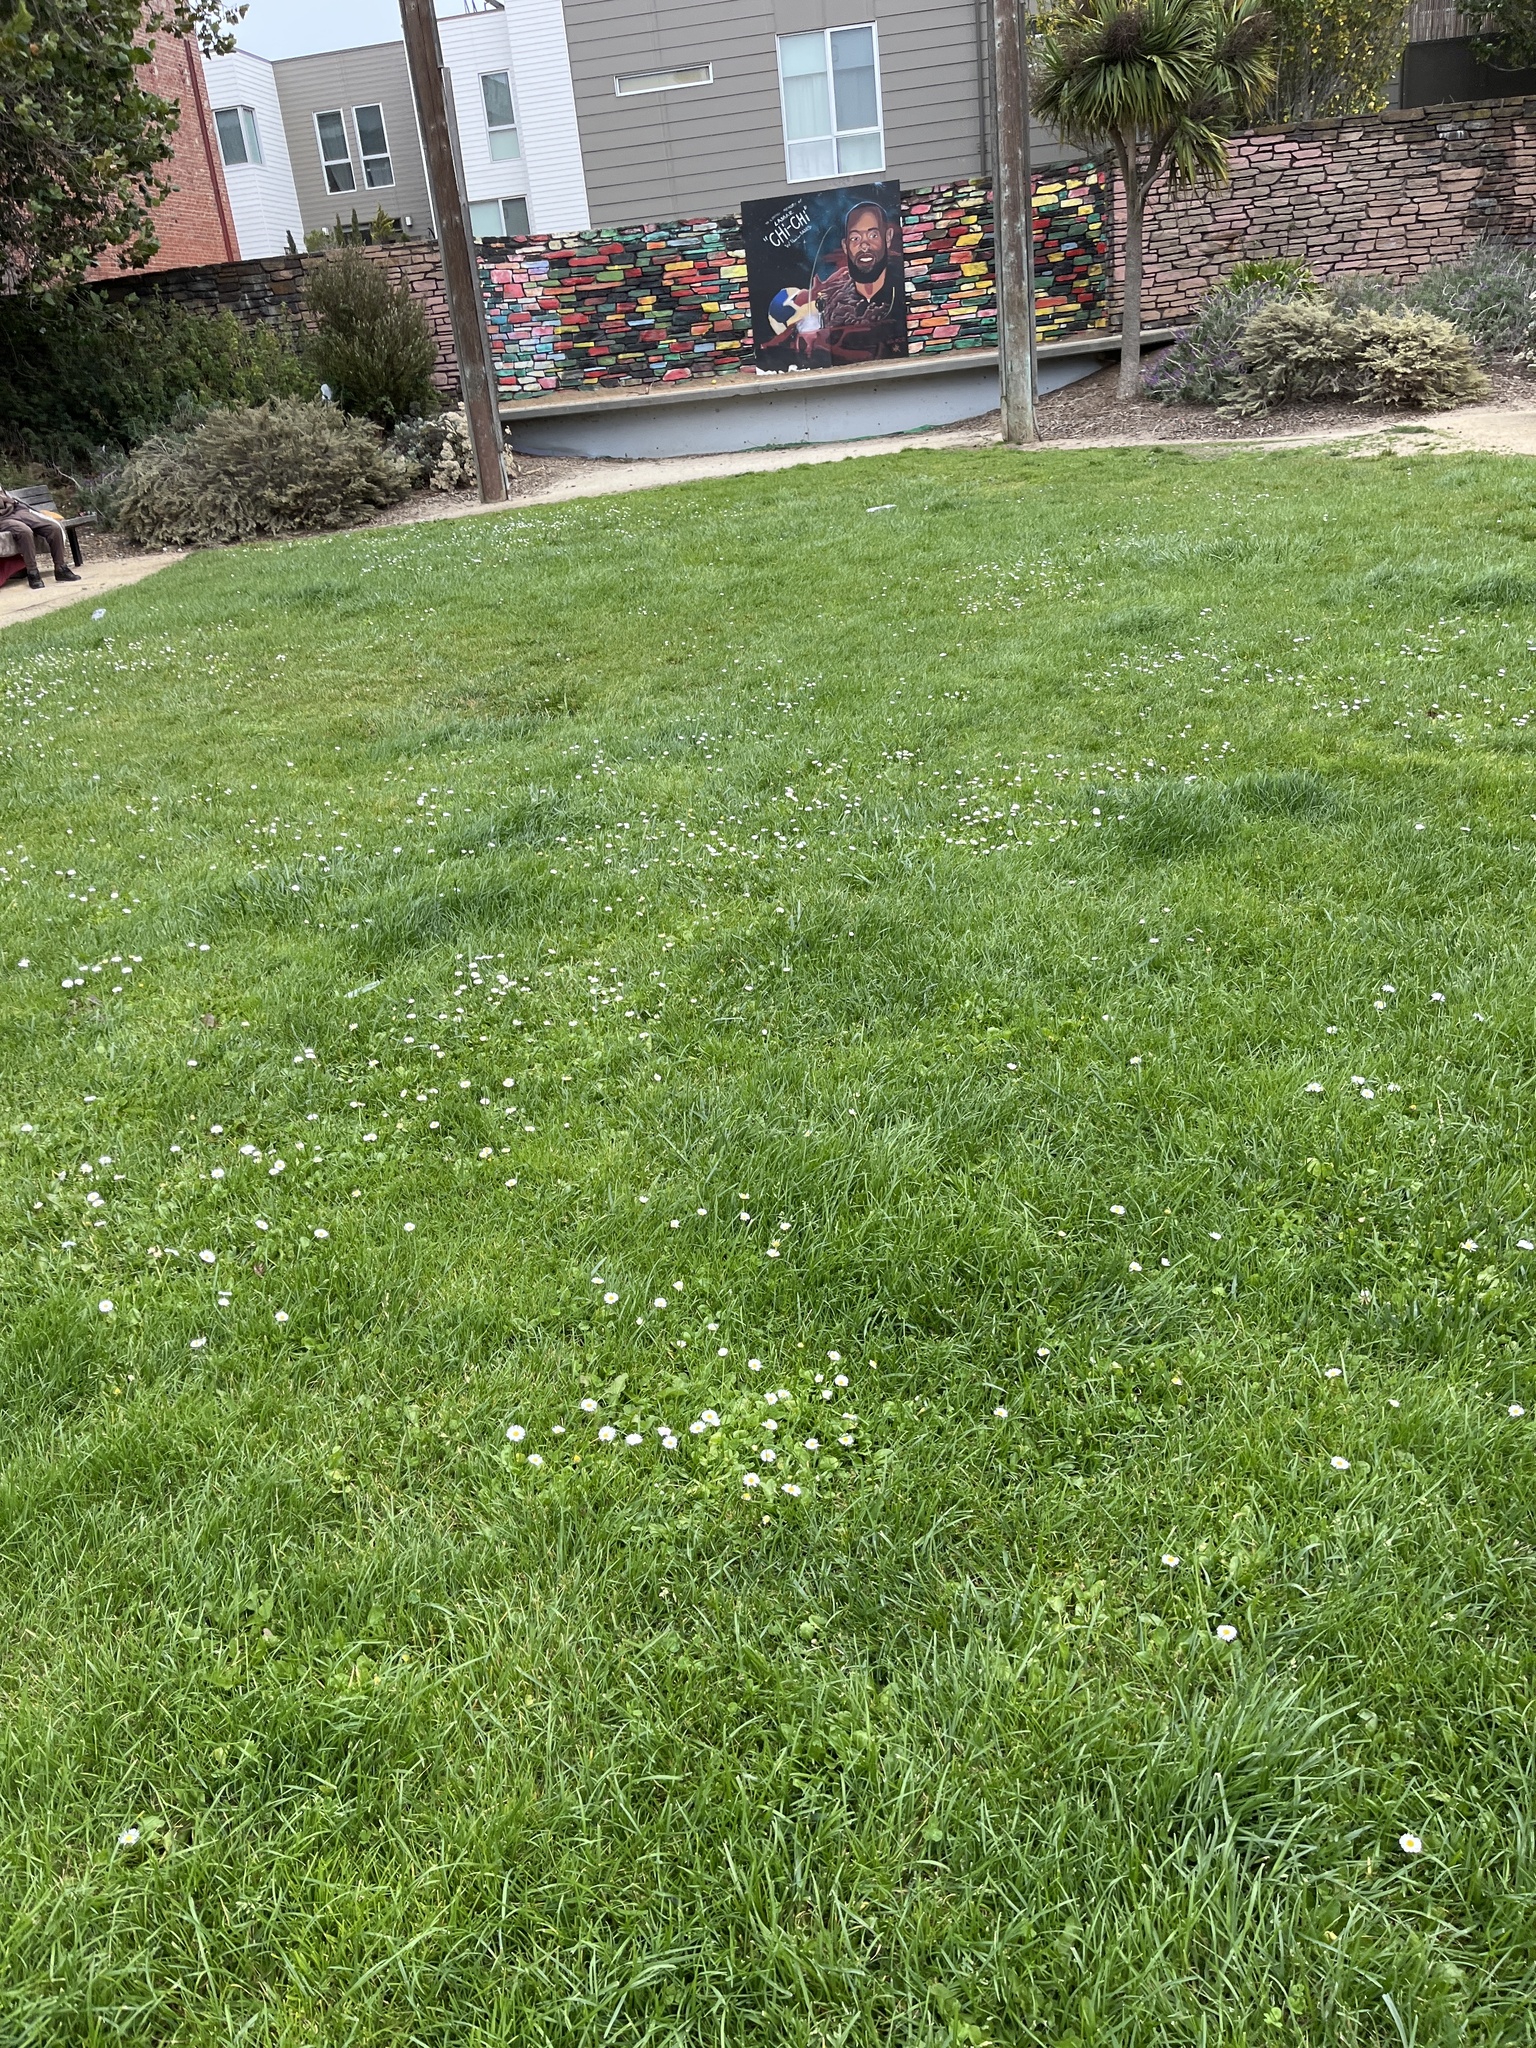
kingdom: Plantae
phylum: Tracheophyta
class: Magnoliopsida
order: Asterales
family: Asteraceae
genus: Bellis
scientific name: Bellis perennis
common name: Lawndaisy
